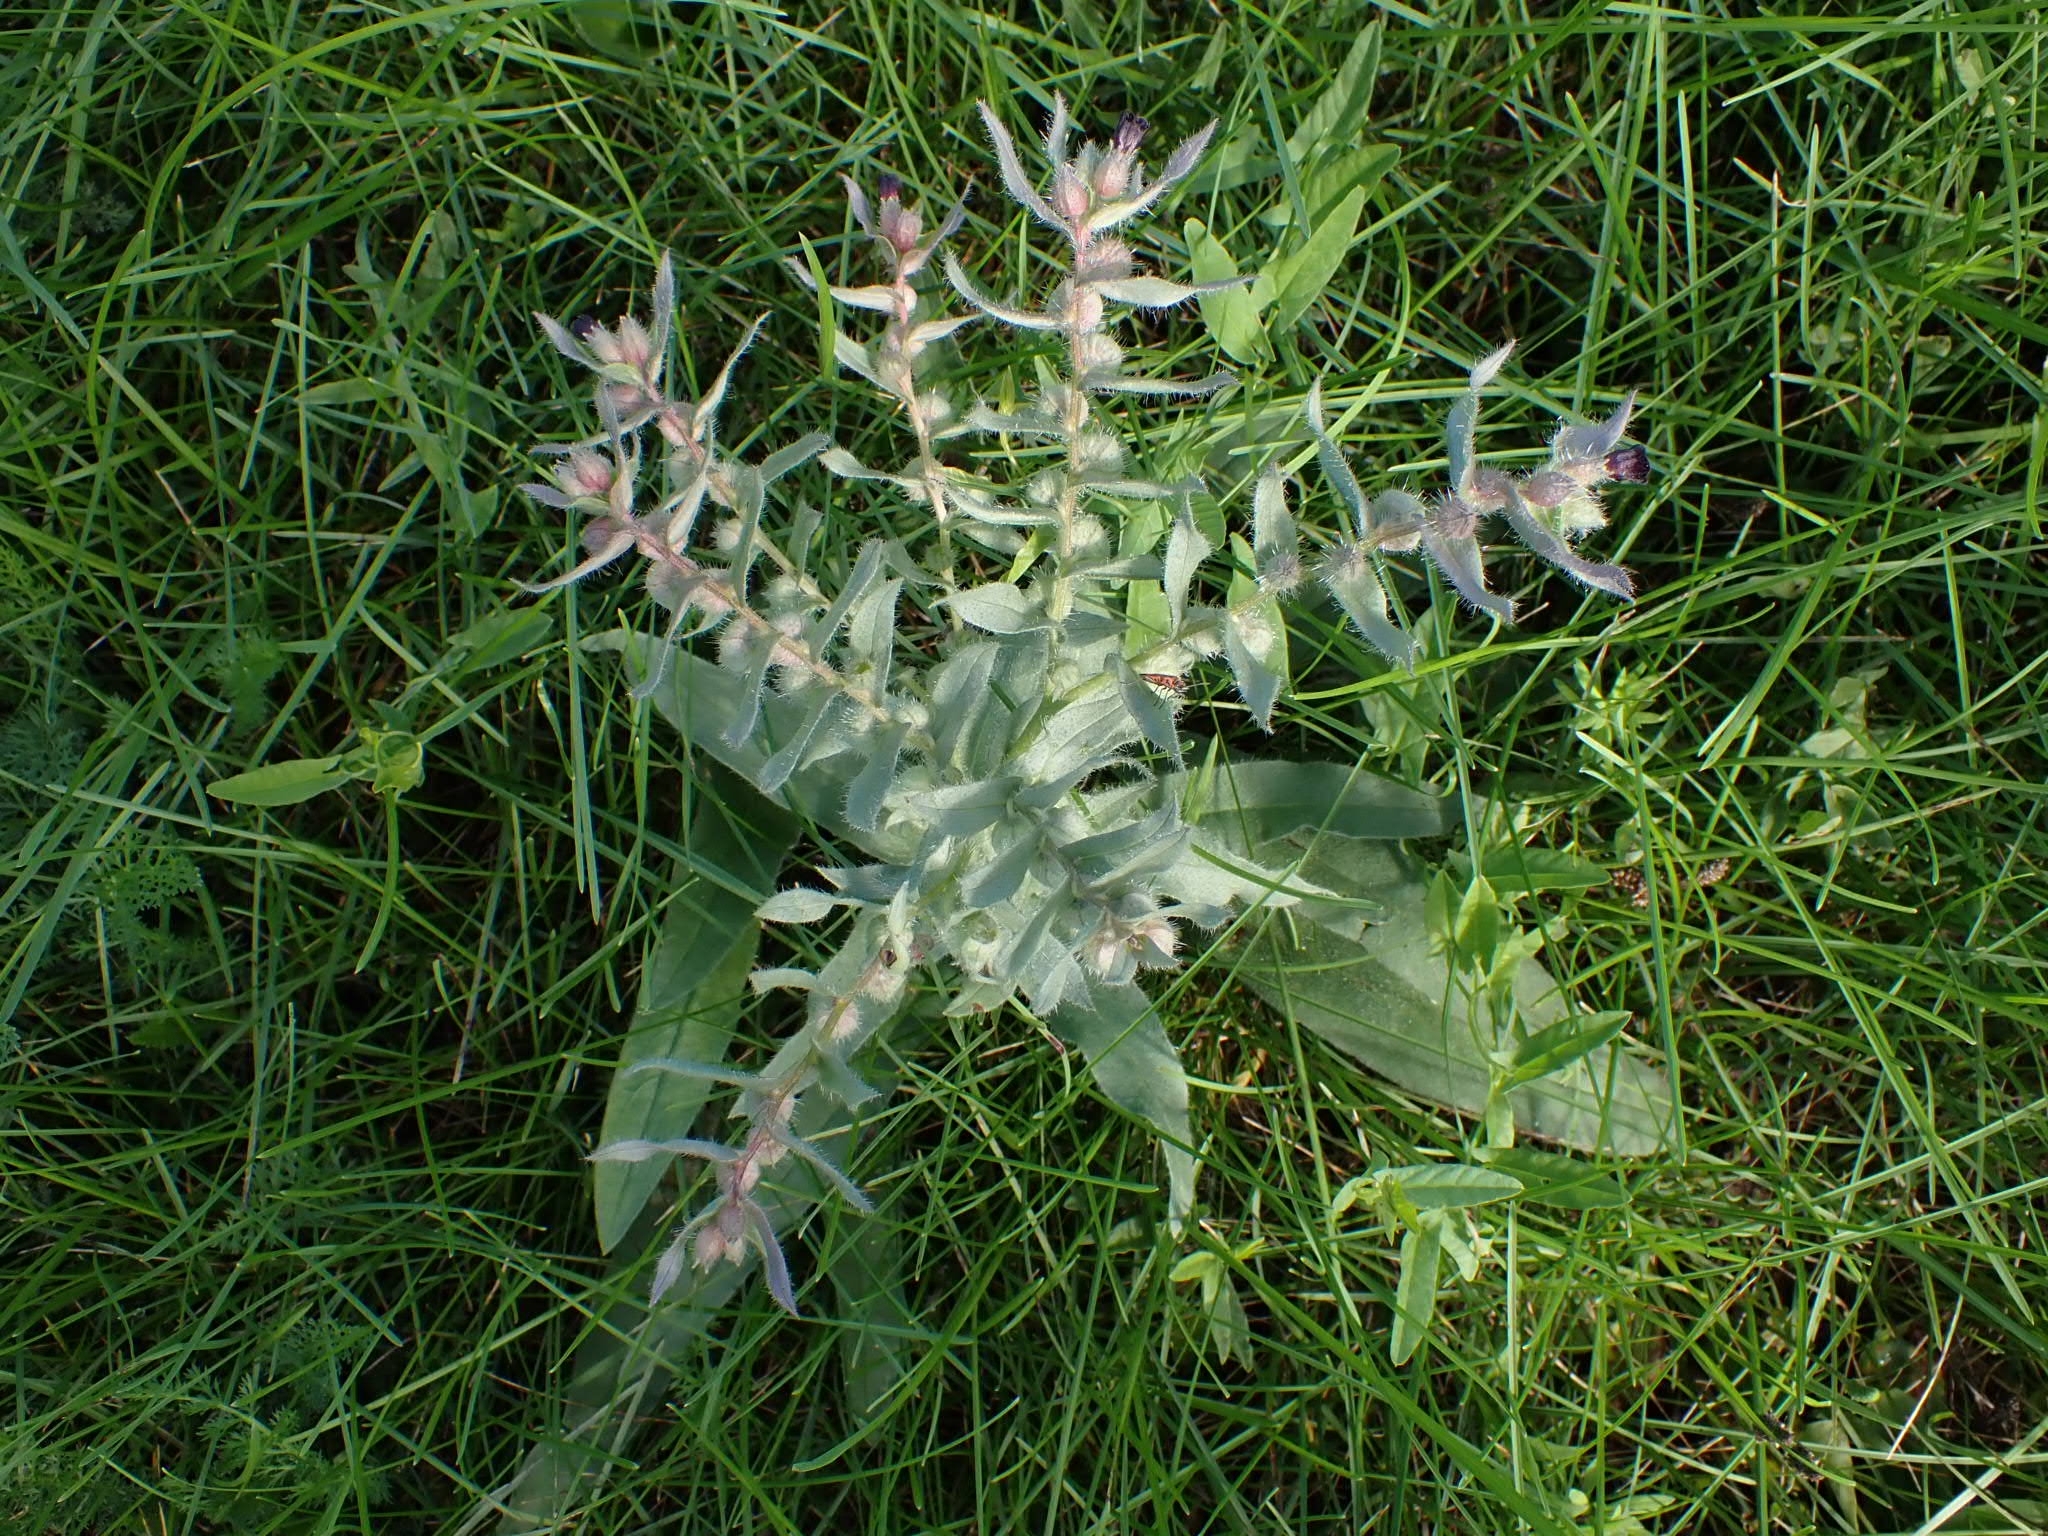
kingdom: Plantae
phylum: Tracheophyta
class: Magnoliopsida
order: Boraginales
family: Boraginaceae
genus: Nonea
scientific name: Nonea pulla
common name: Brown nonea
